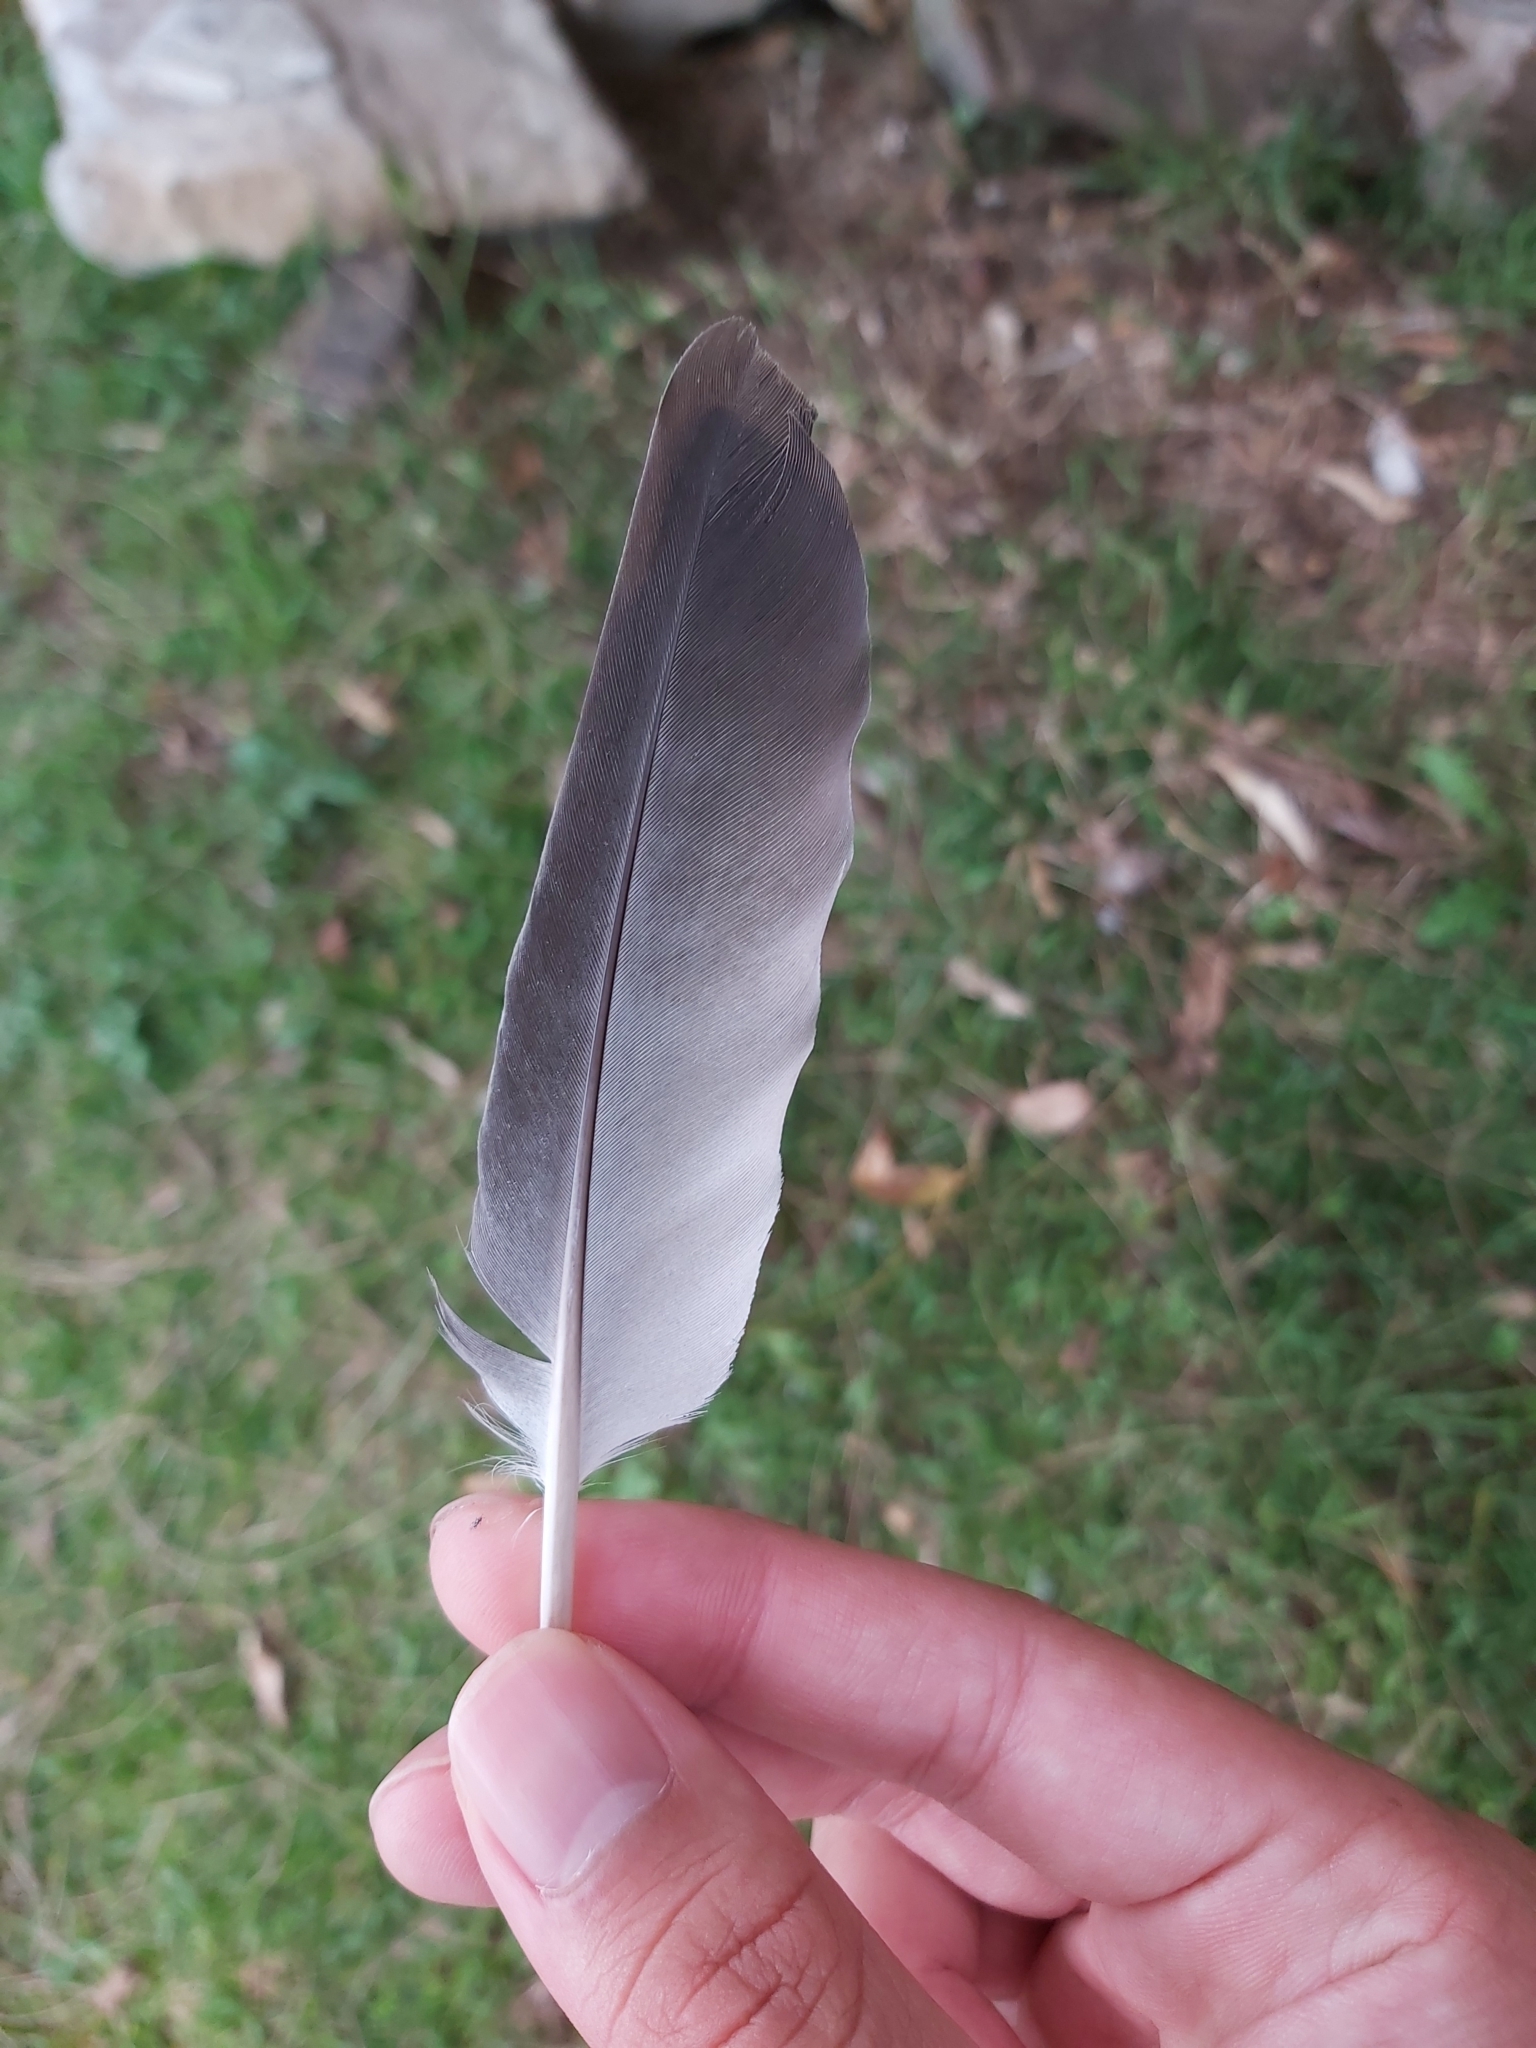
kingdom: Animalia
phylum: Chordata
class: Aves
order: Columbiformes
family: Columbidae
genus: Columba
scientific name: Columba livia
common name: Rock pigeon
